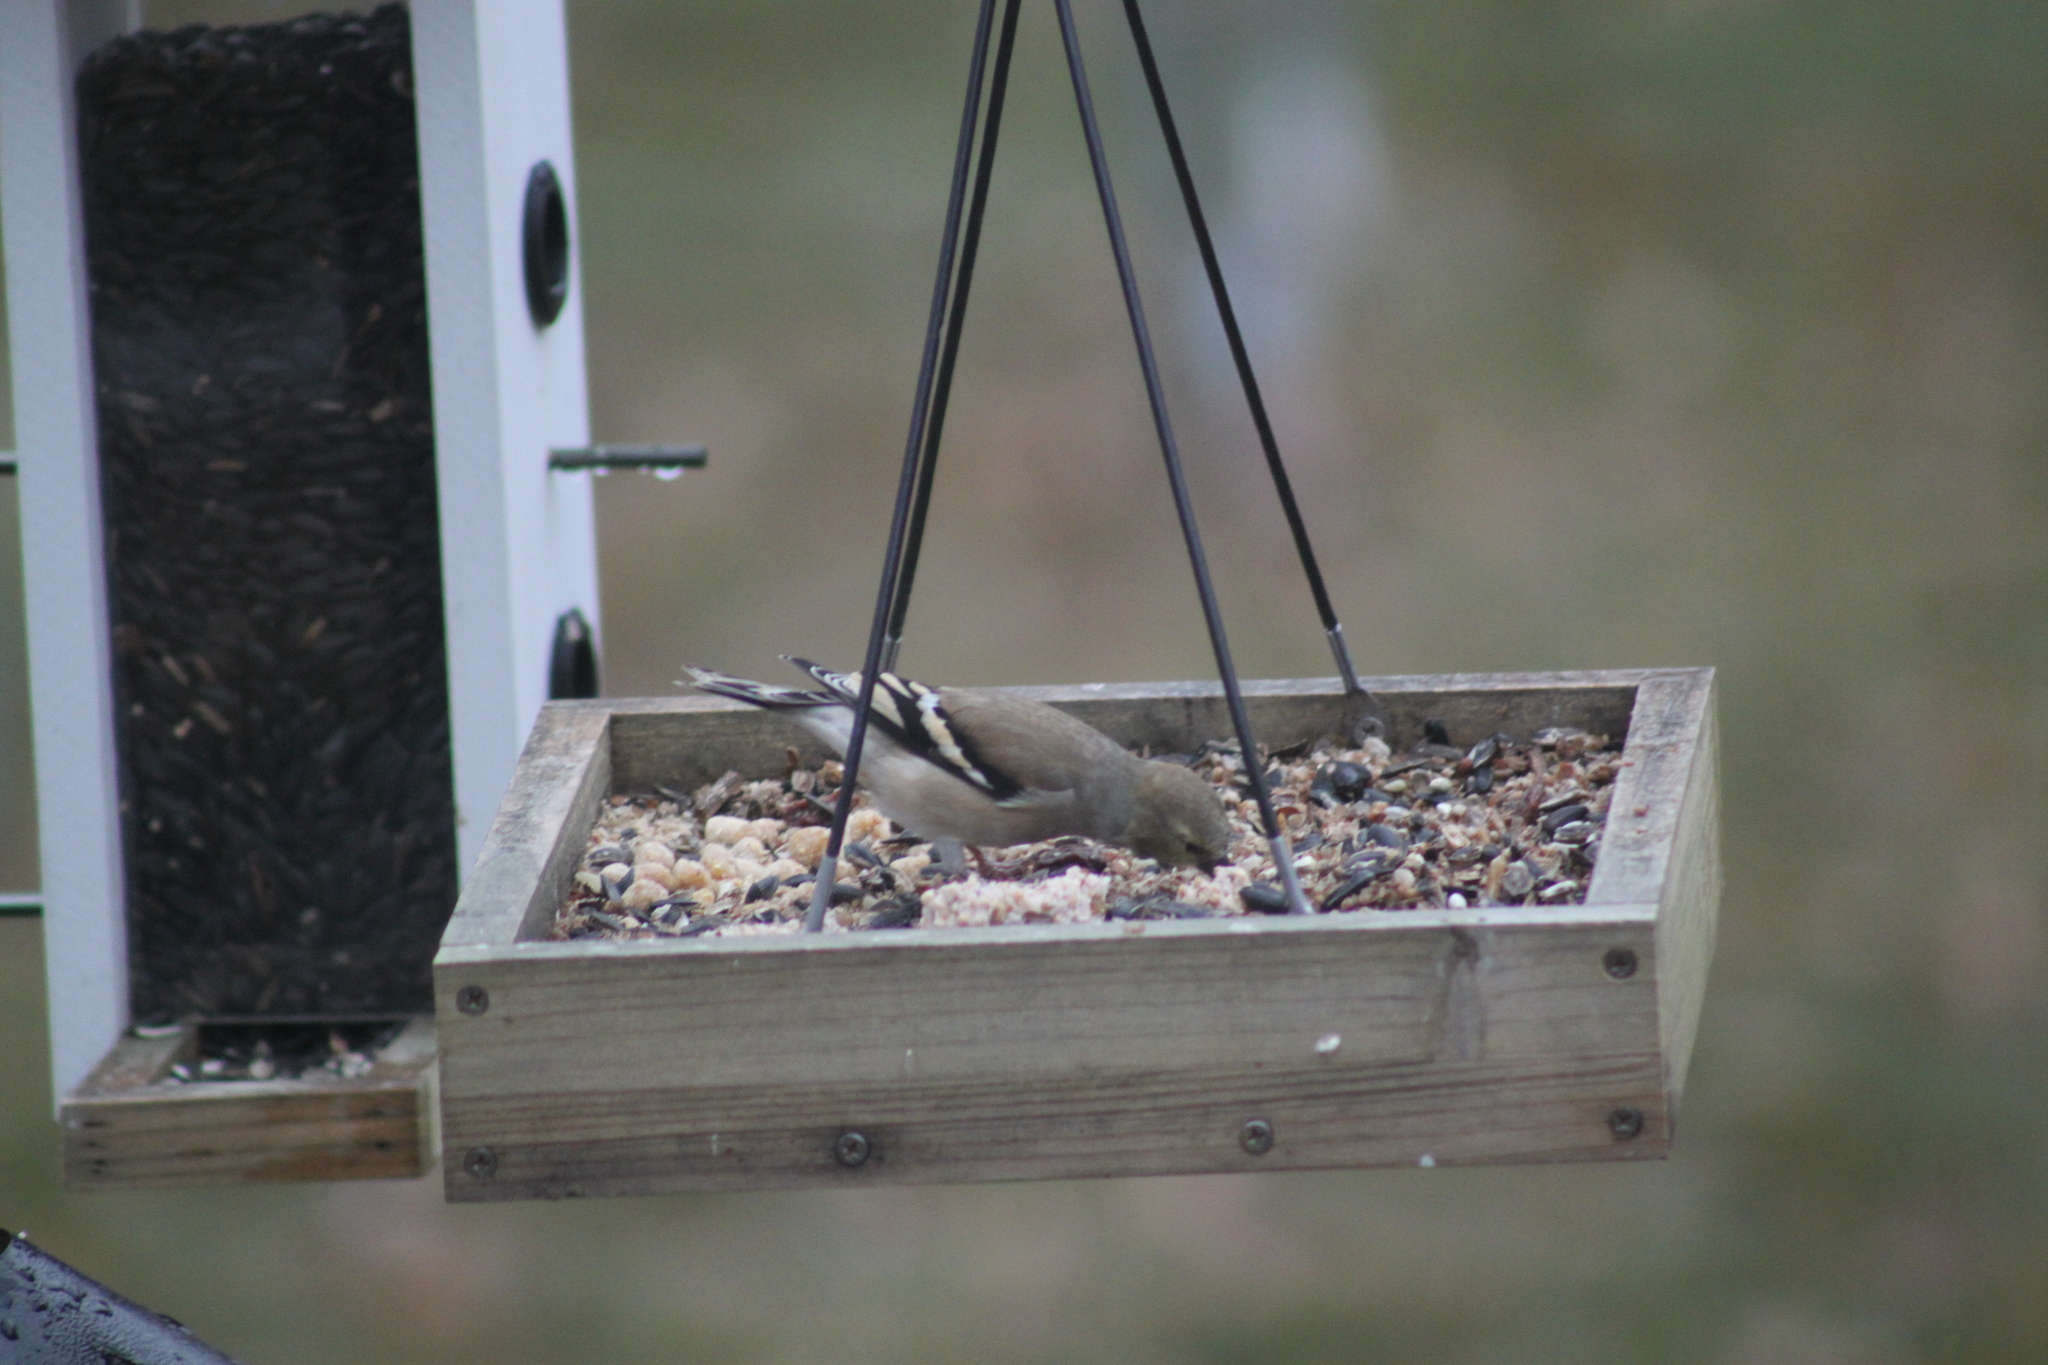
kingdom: Animalia
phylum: Chordata
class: Aves
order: Passeriformes
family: Fringillidae
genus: Spinus
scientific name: Spinus tristis
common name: American goldfinch
